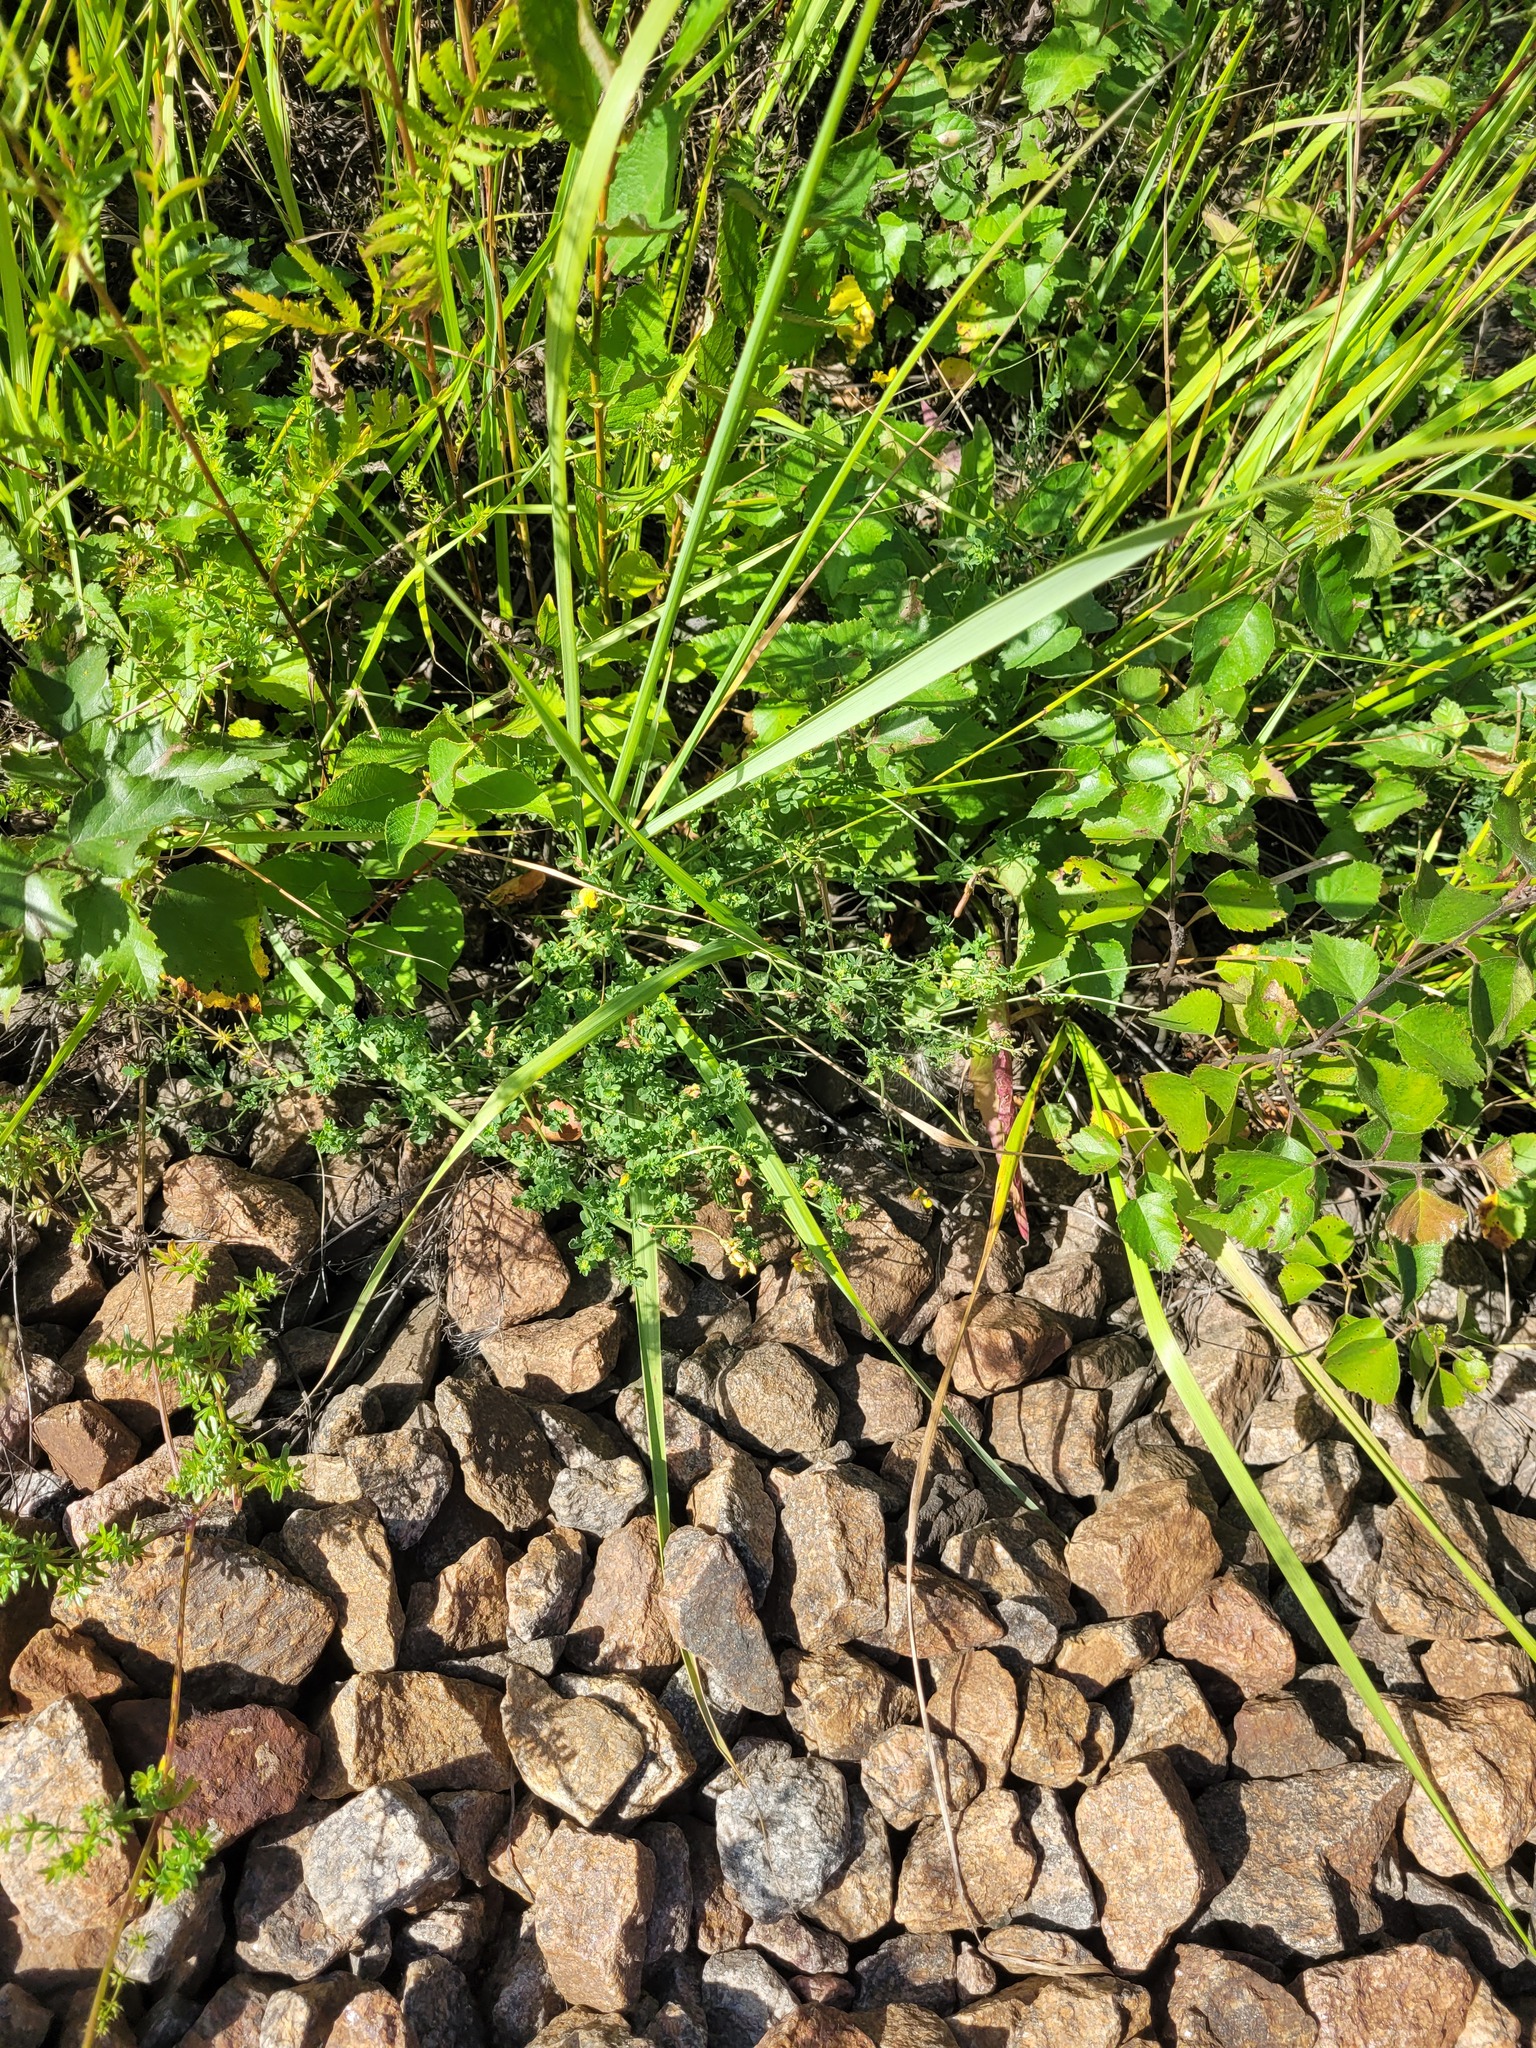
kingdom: Plantae
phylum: Tracheophyta
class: Magnoliopsida
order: Fabales
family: Fabaceae
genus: Lotus
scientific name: Lotus corniculatus
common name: Common bird's-foot-trefoil
